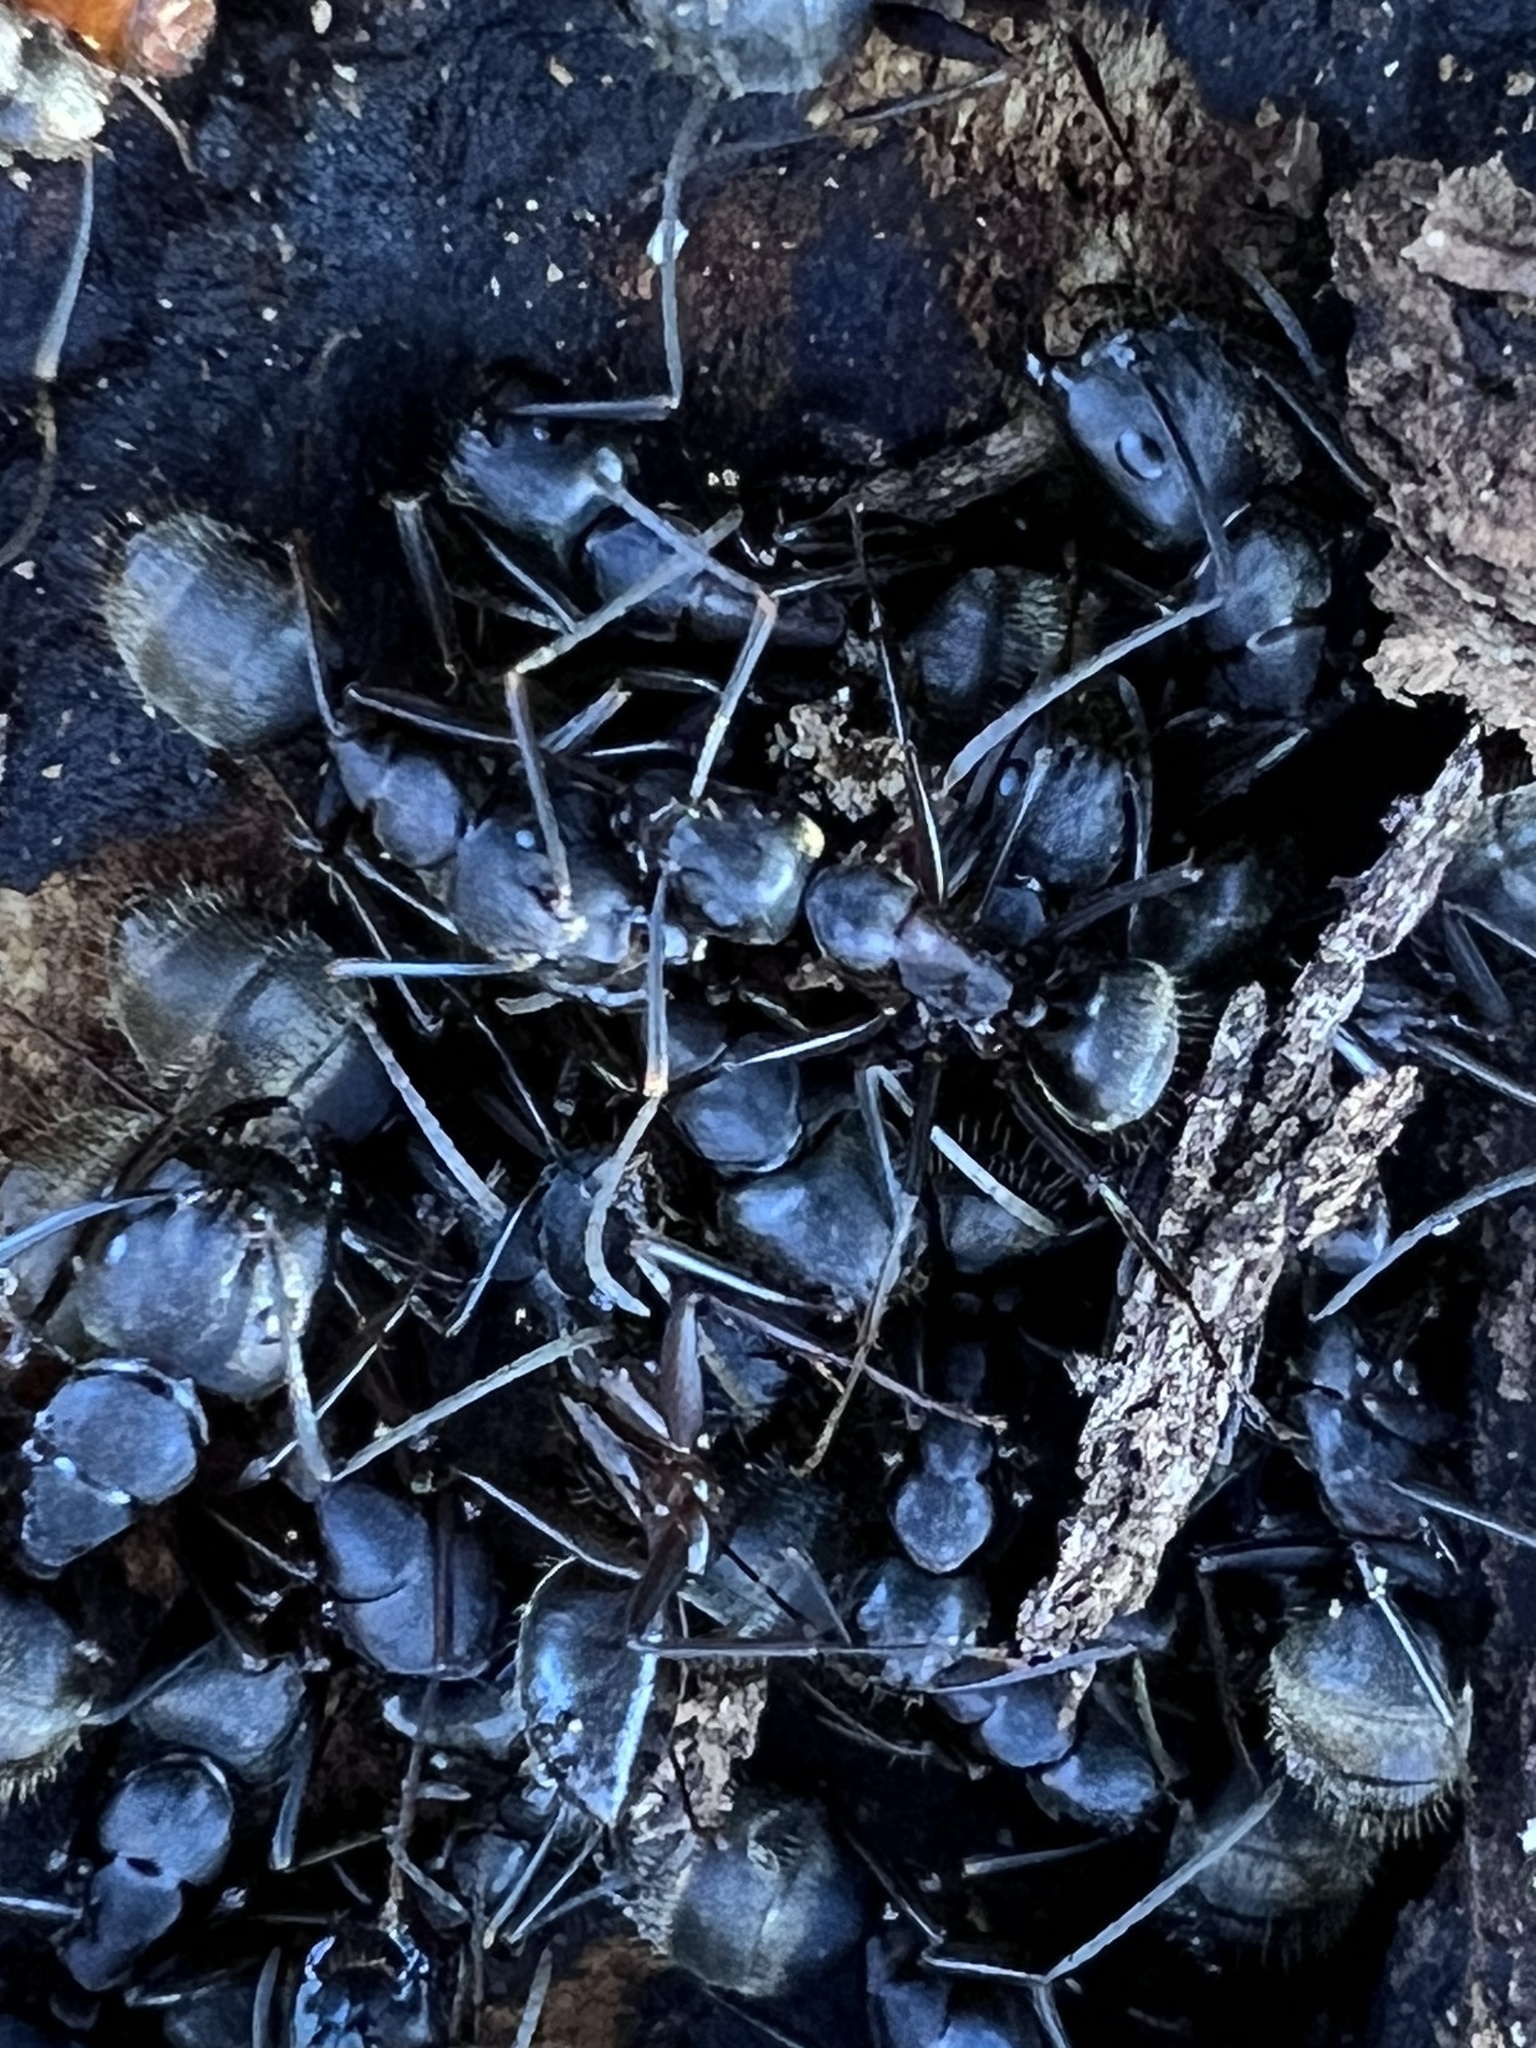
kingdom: Animalia
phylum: Arthropoda
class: Insecta
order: Hymenoptera
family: Formicidae
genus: Camponotus
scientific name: Camponotus pennsylvanicus
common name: Black carpenter ant
